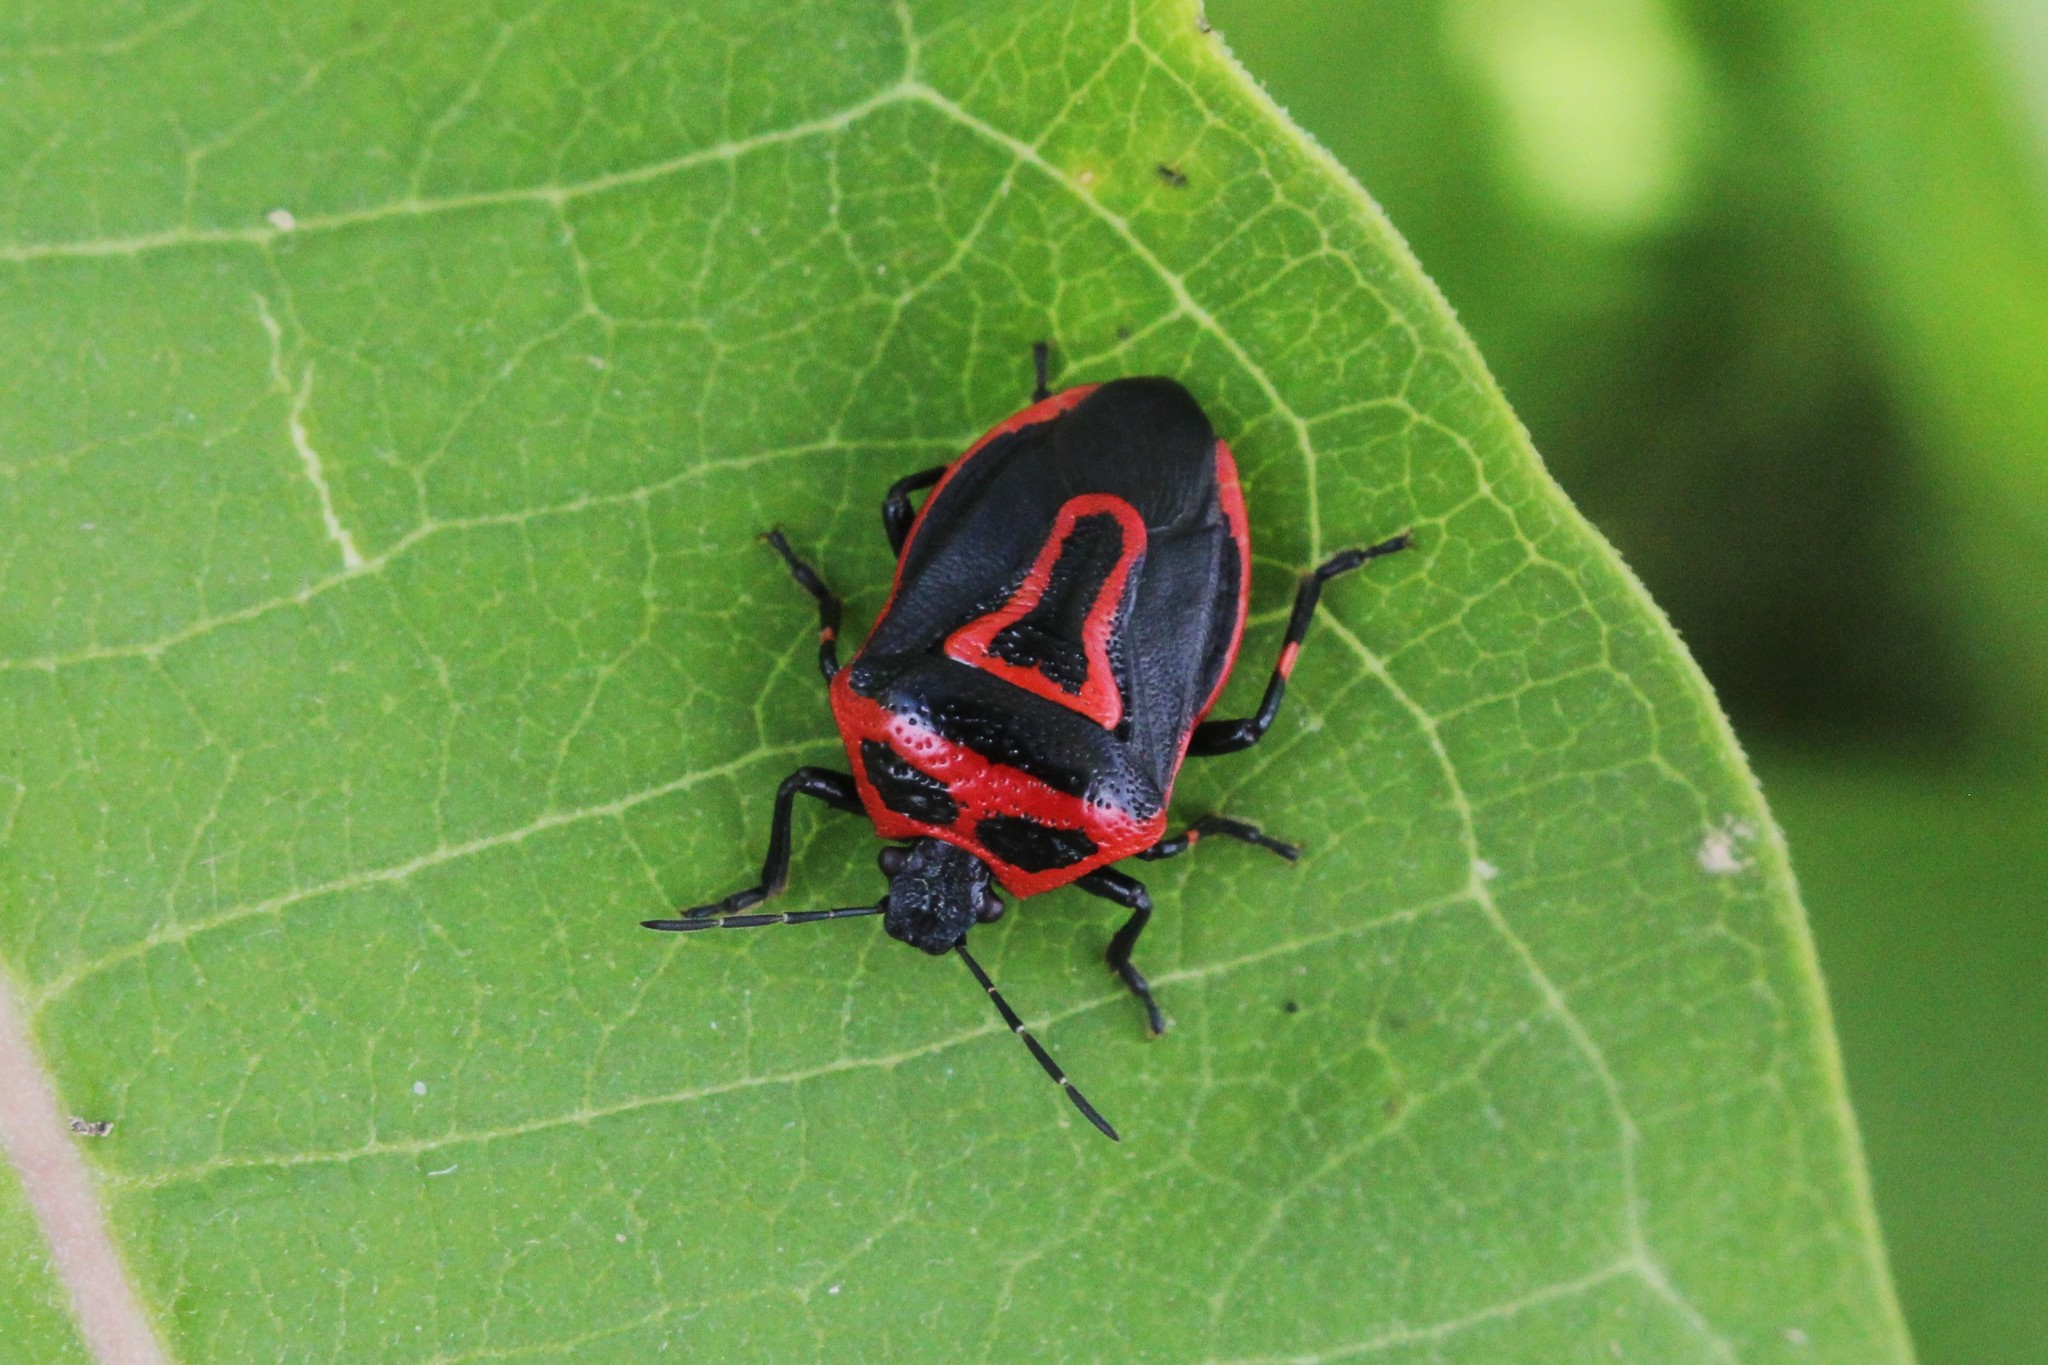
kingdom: Animalia
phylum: Arthropoda
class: Insecta
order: Hemiptera
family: Pentatomidae
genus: Perillus
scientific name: Perillus bioculatus
